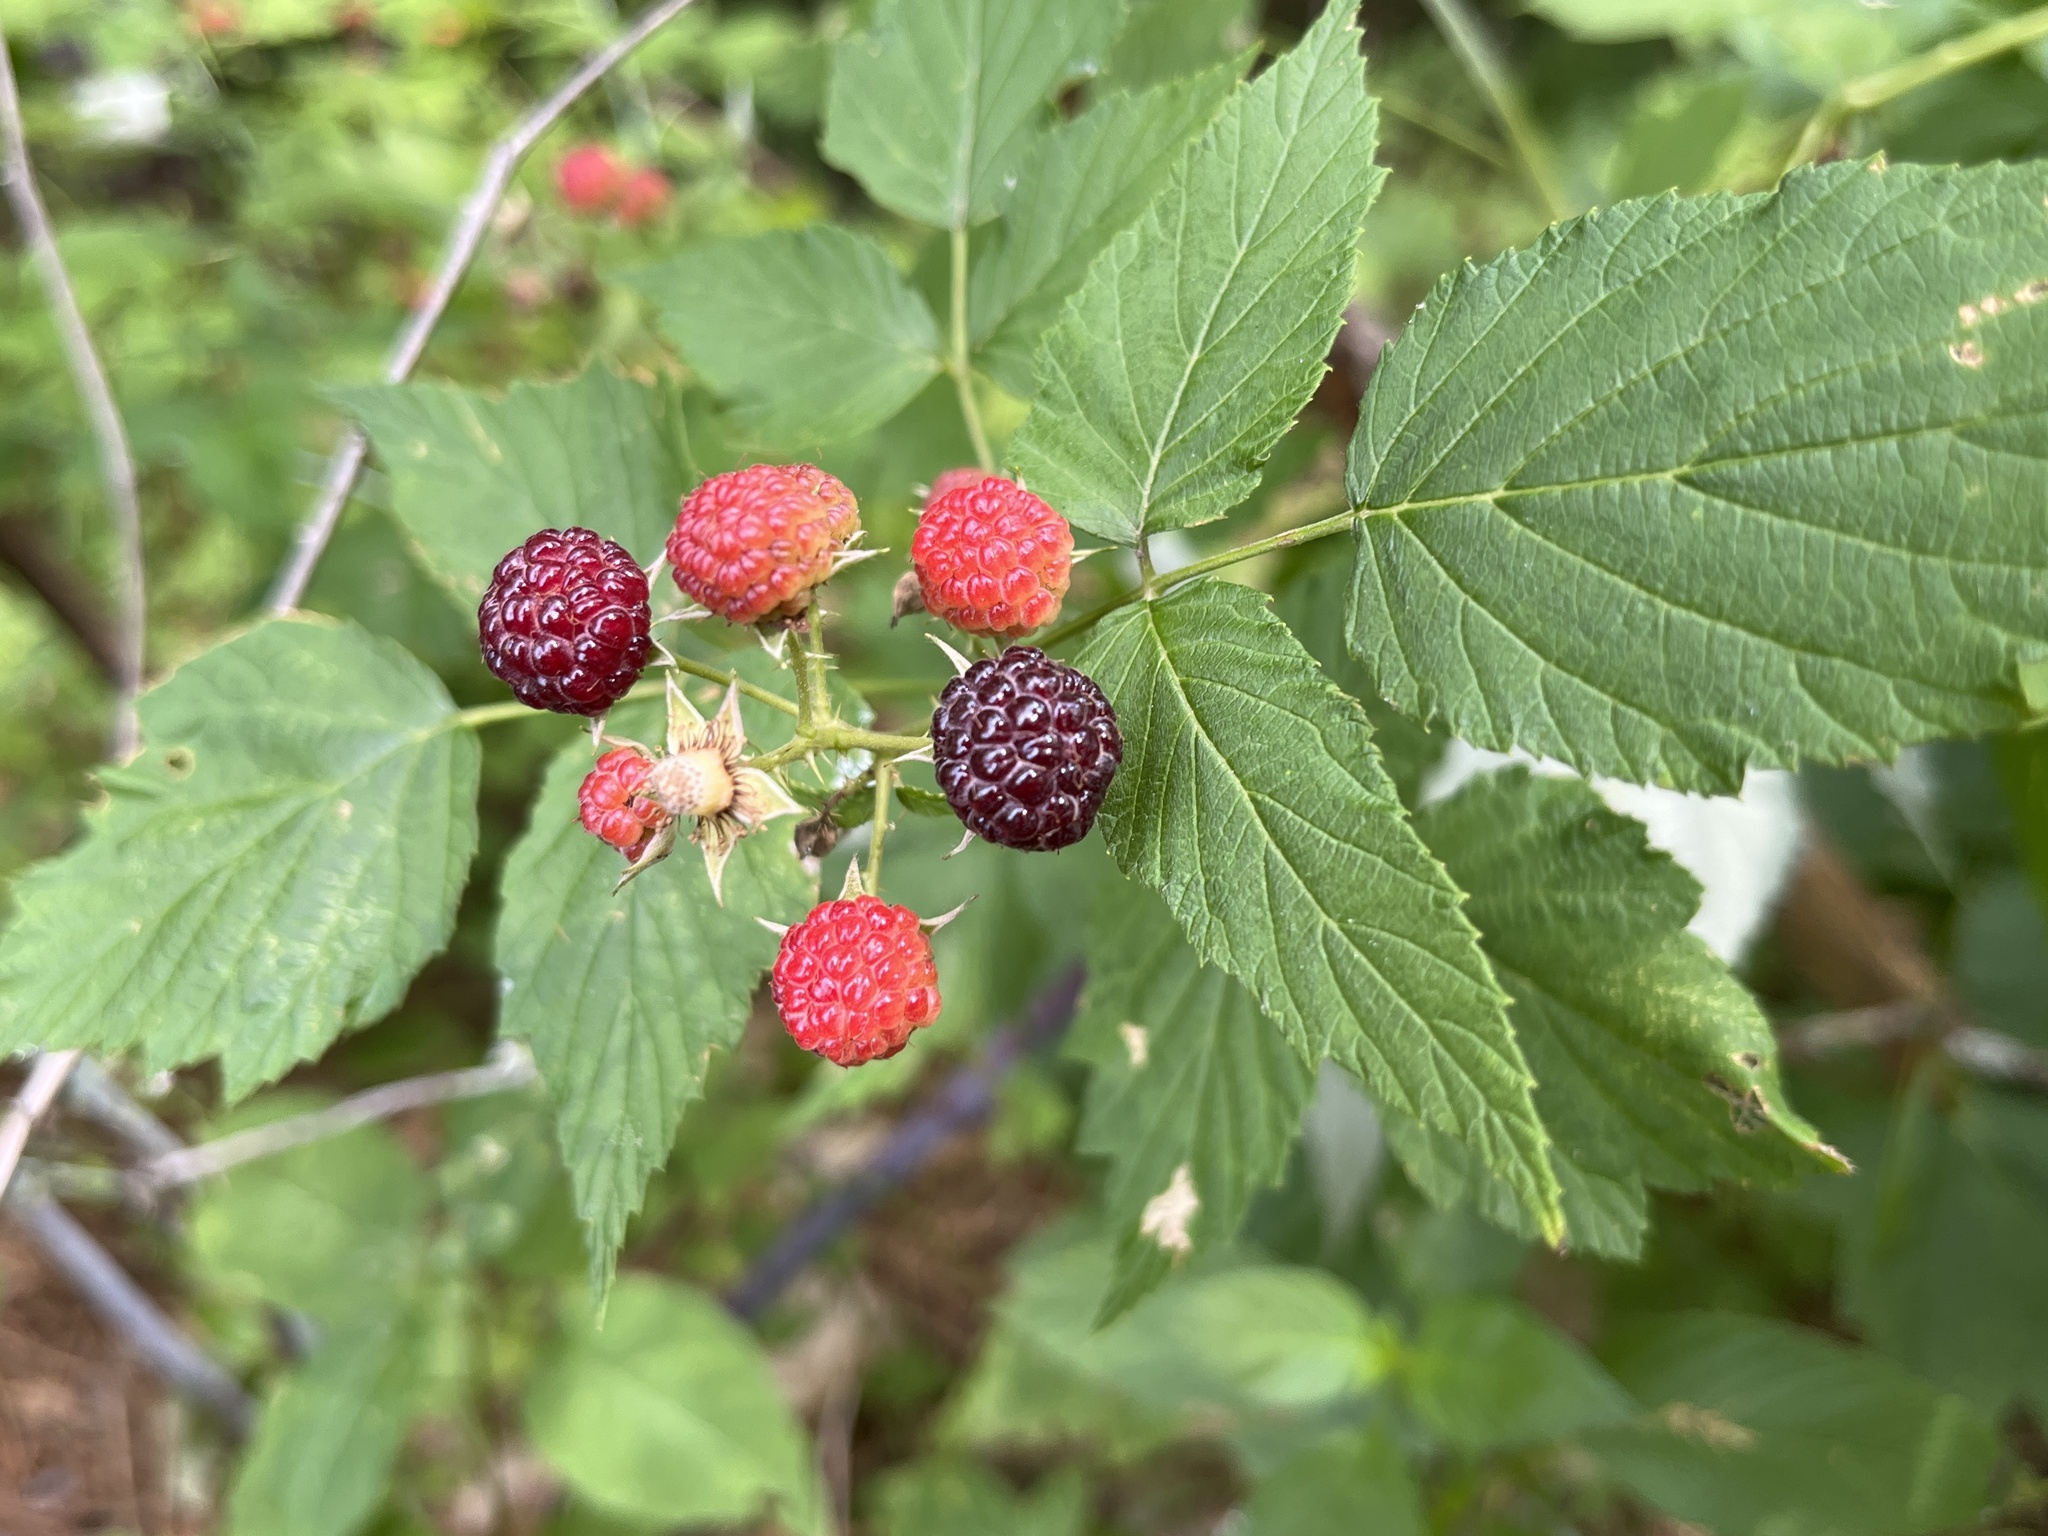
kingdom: Plantae
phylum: Tracheophyta
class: Magnoliopsida
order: Rosales
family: Rosaceae
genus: Rubus
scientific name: Rubus occidentalis
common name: Black raspberry
